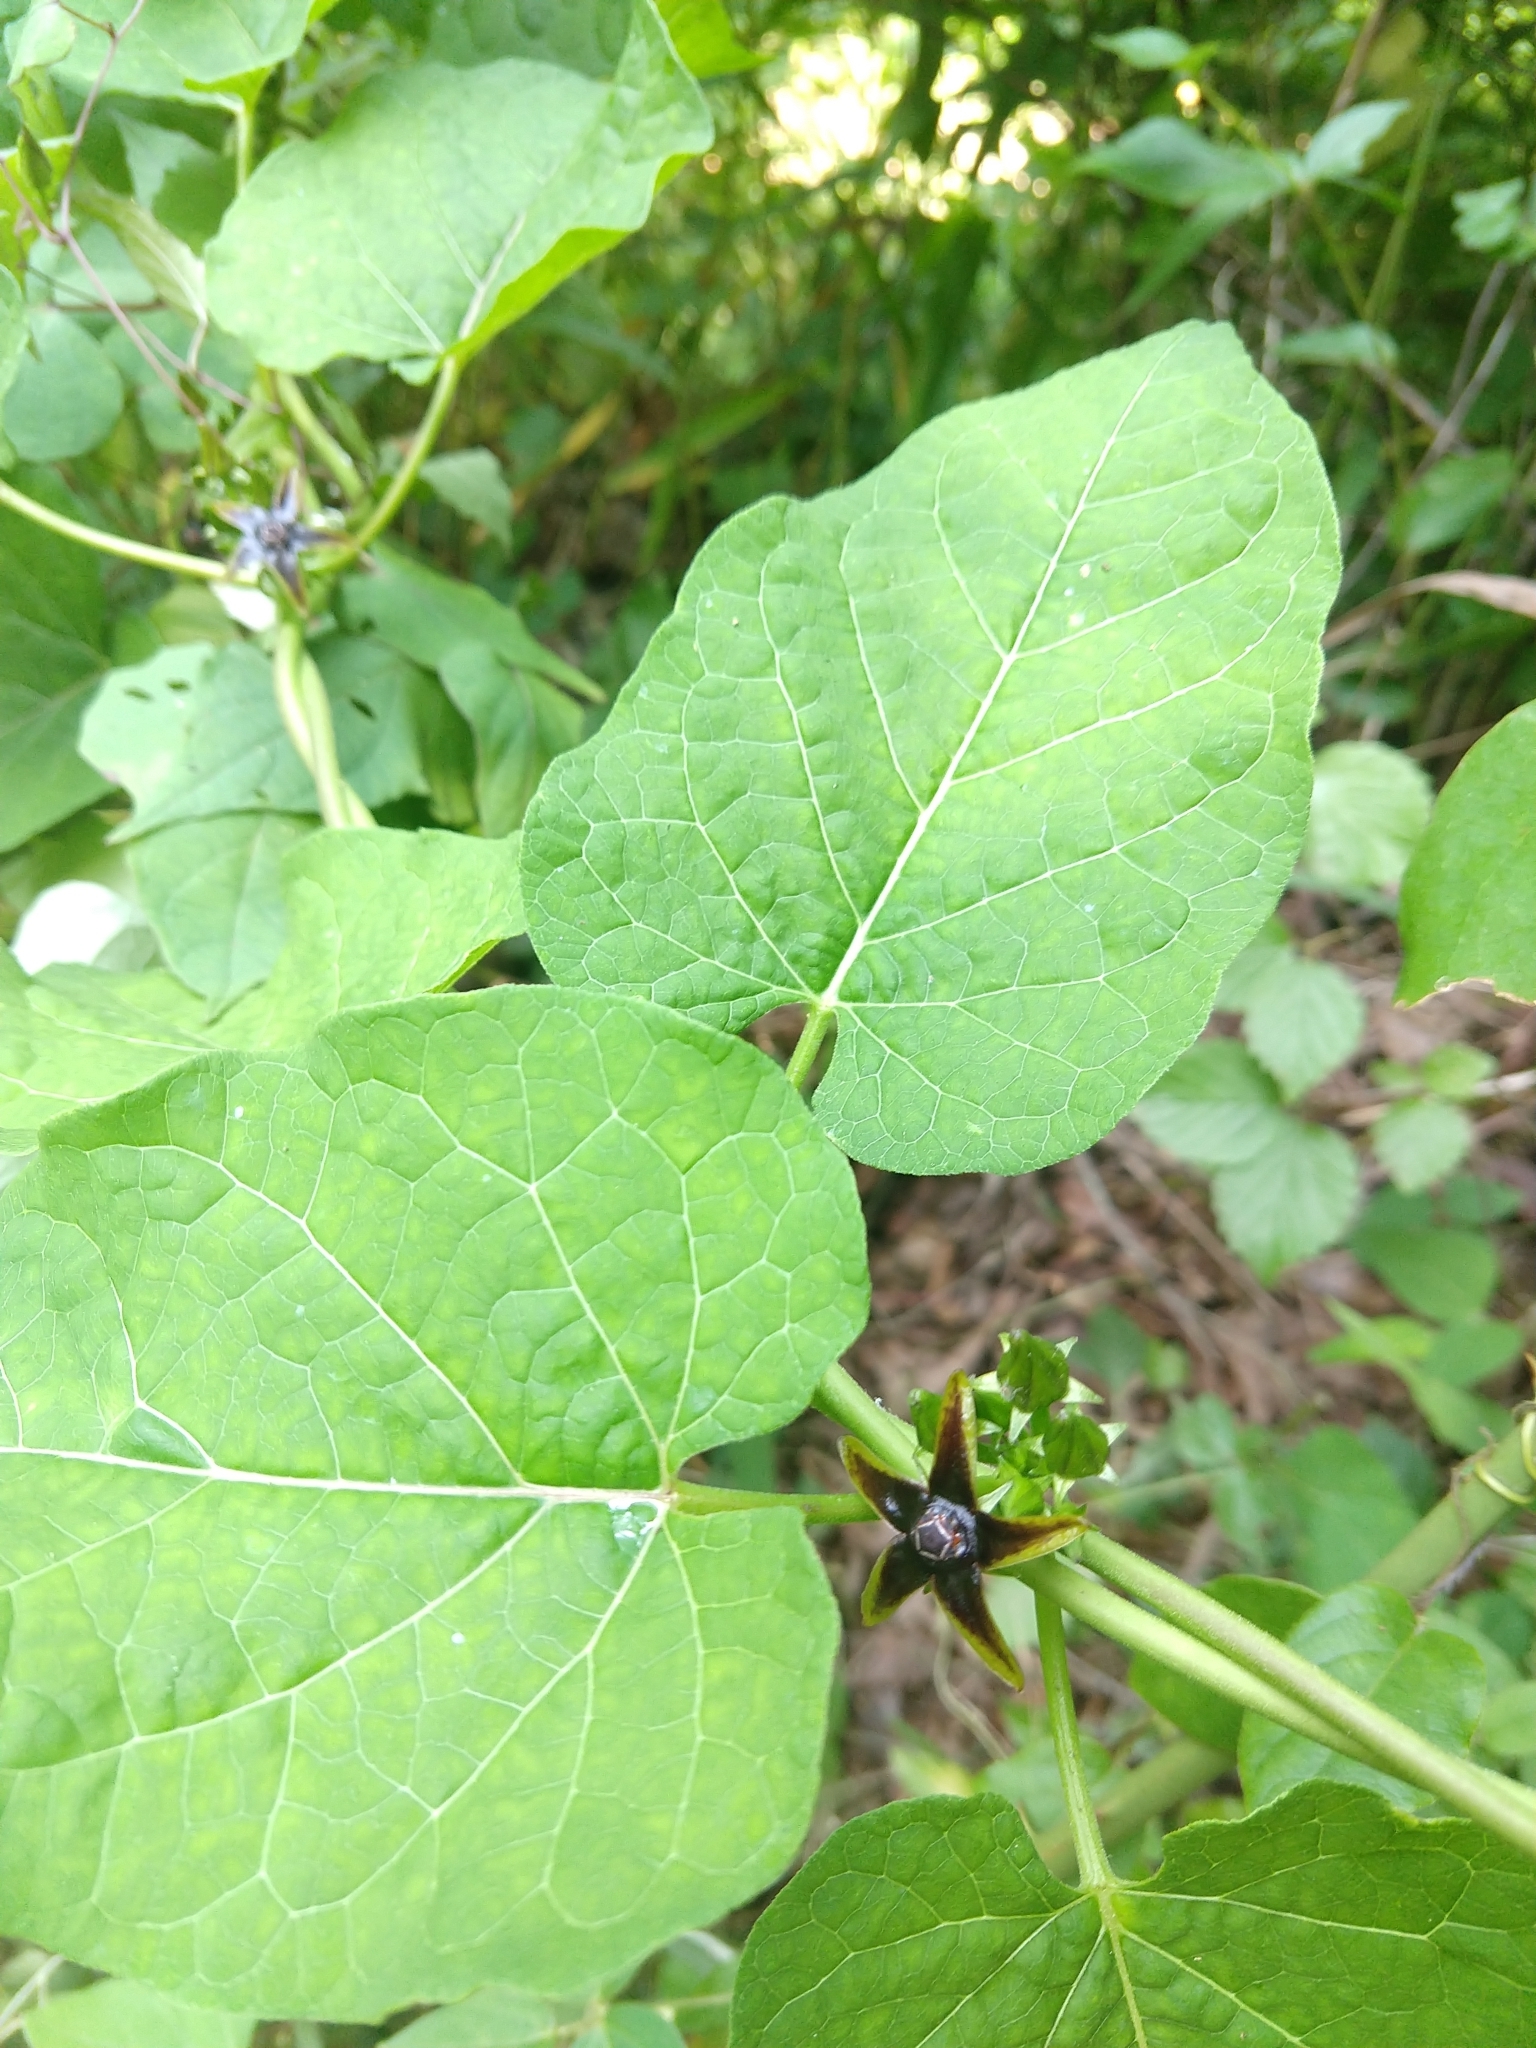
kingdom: Plantae
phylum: Tracheophyta
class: Magnoliopsida
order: Gentianales
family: Apocynaceae
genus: Gonolobus
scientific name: Gonolobus suberosus
